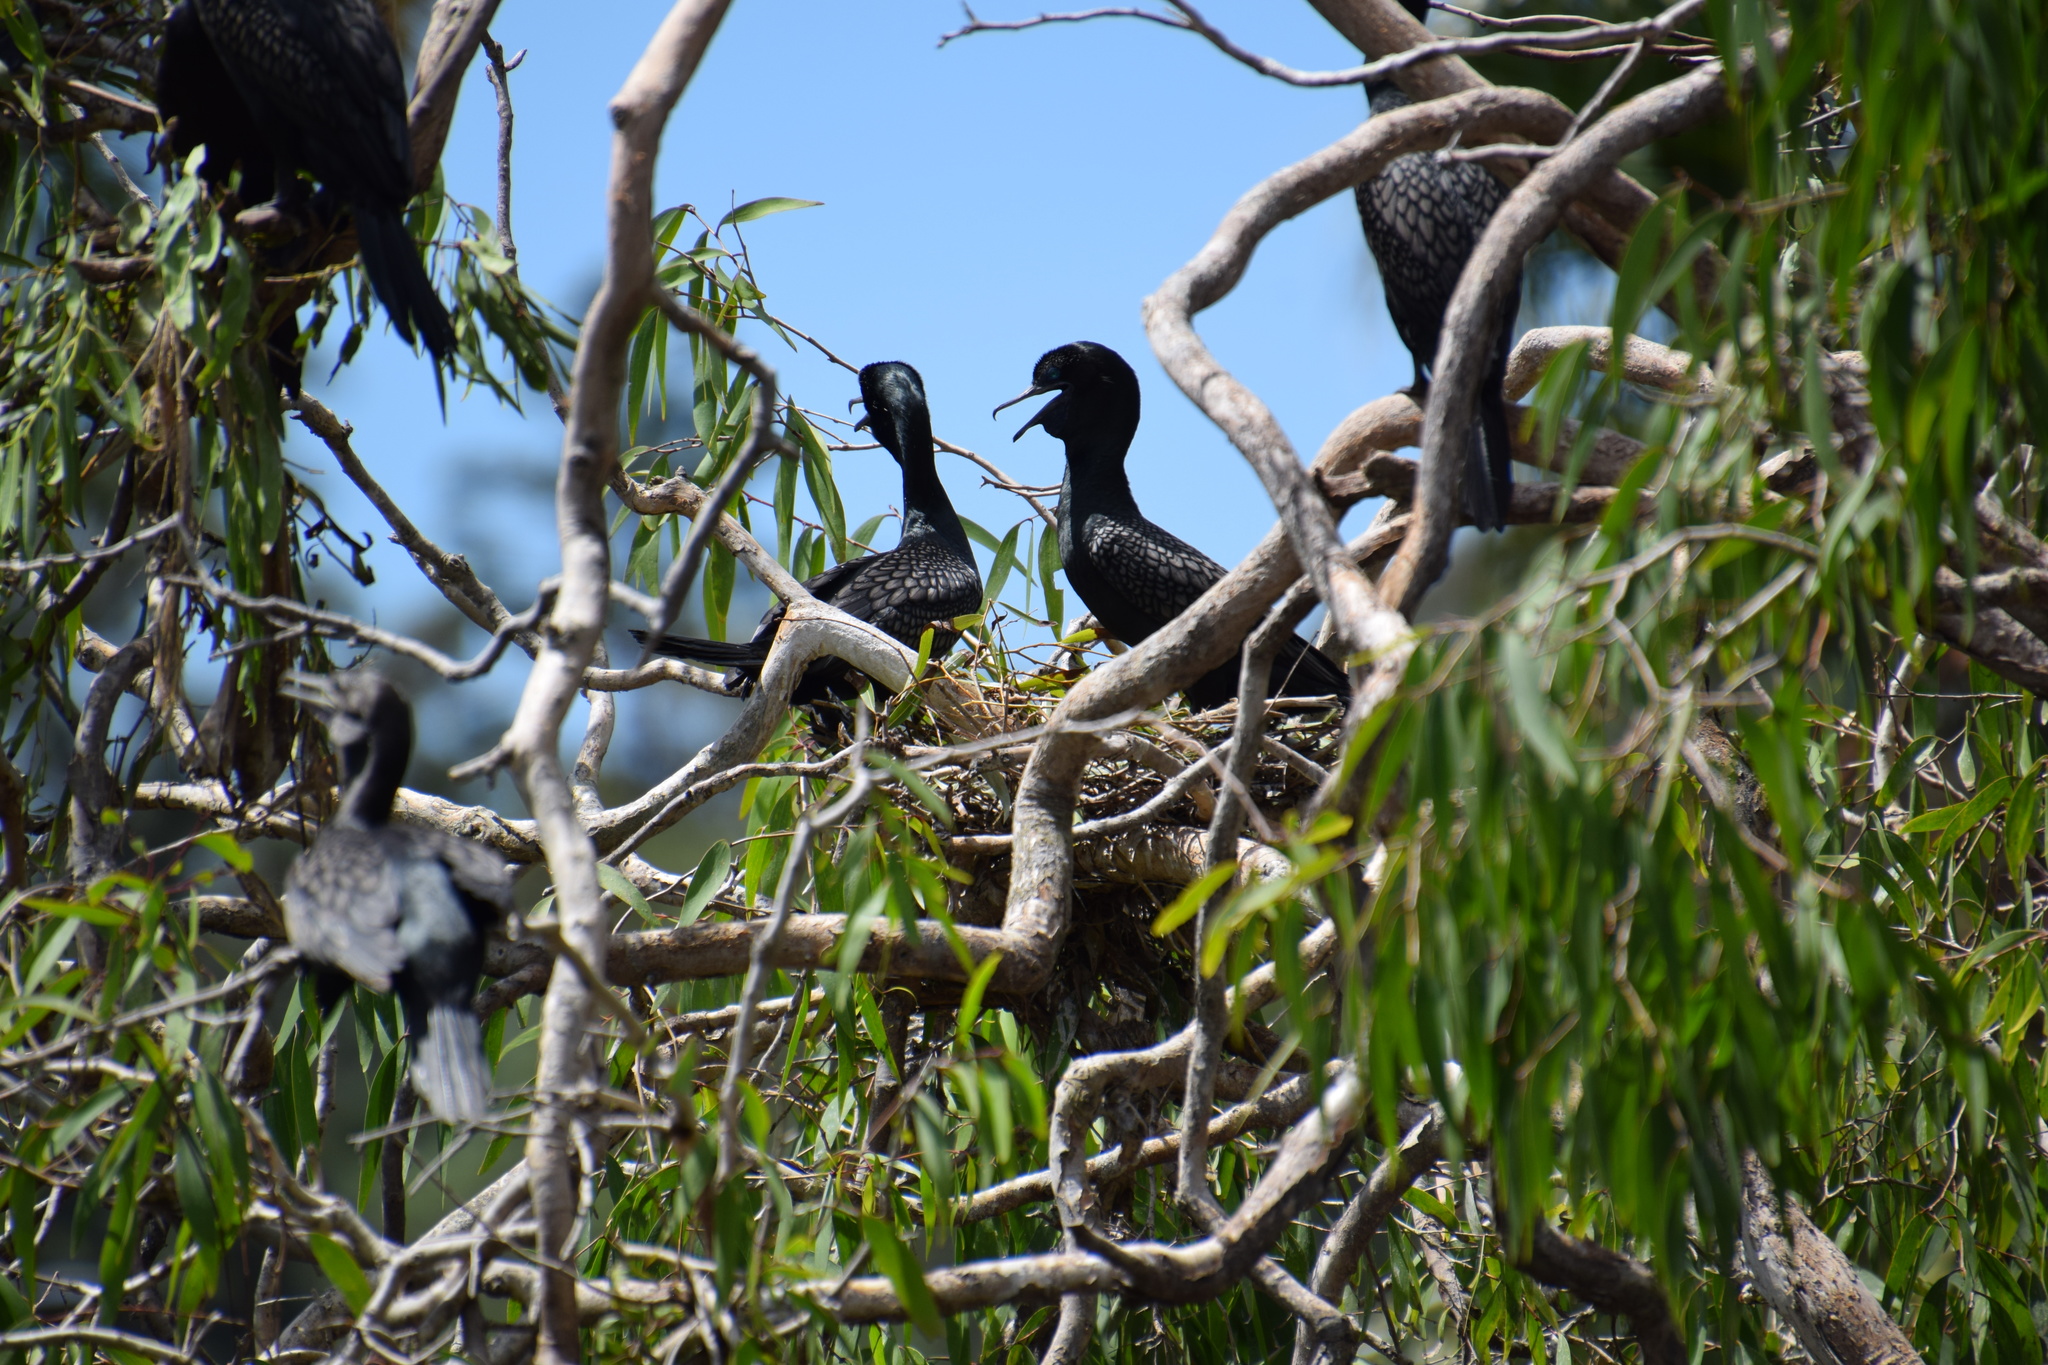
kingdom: Animalia
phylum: Chordata
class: Aves
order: Suliformes
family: Phalacrocoracidae
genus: Phalacrocorax
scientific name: Phalacrocorax sulcirostris
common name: Little black cormorant
